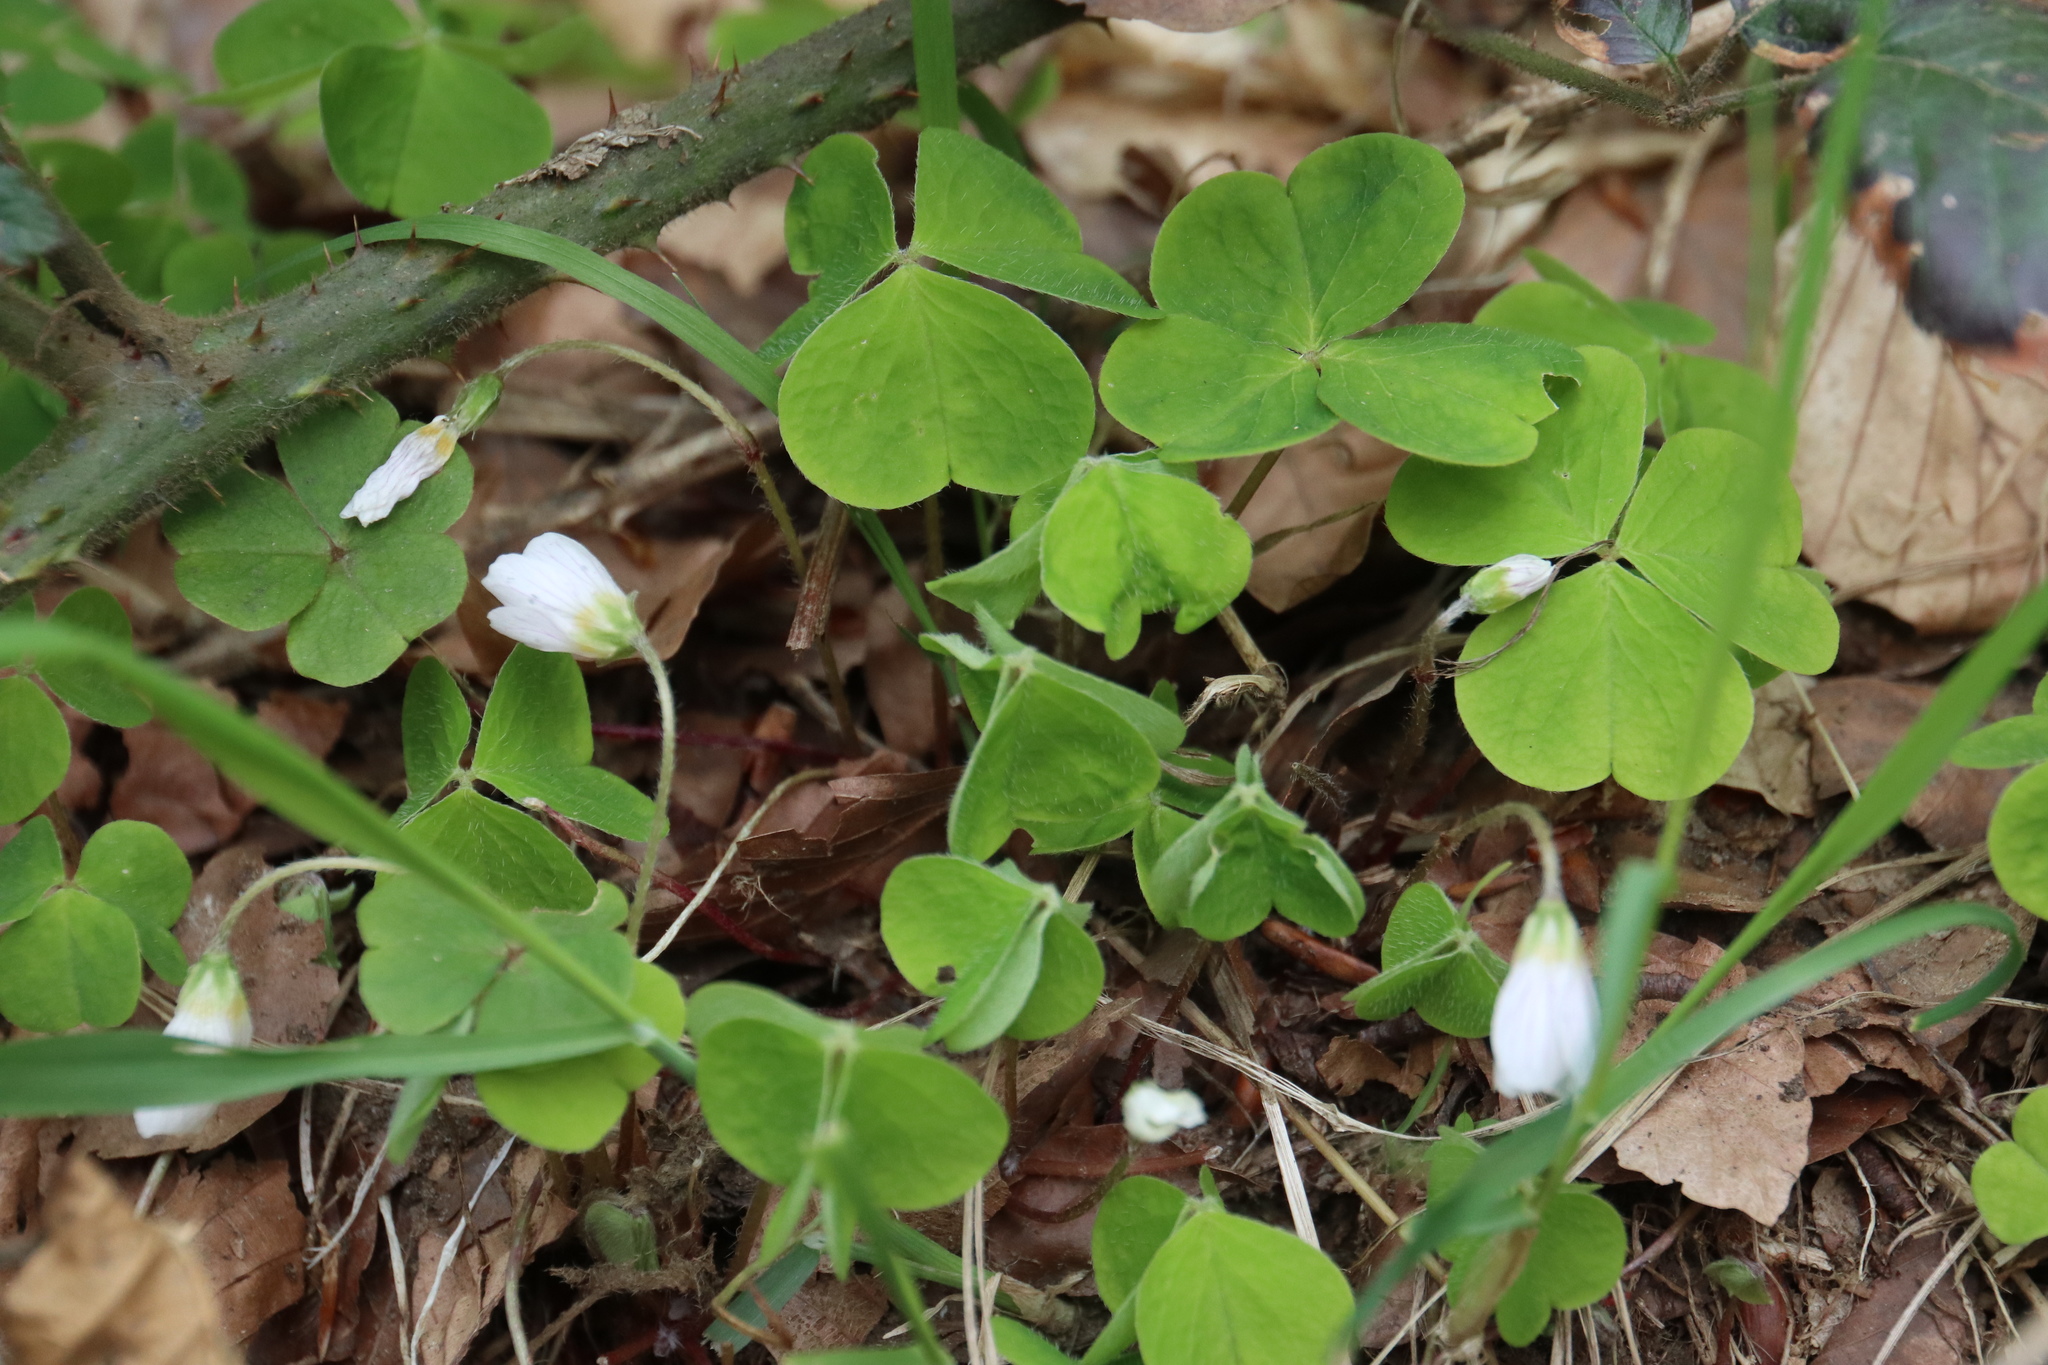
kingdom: Plantae
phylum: Tracheophyta
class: Magnoliopsida
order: Oxalidales
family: Oxalidaceae
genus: Oxalis
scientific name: Oxalis acetosella
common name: Wood-sorrel
